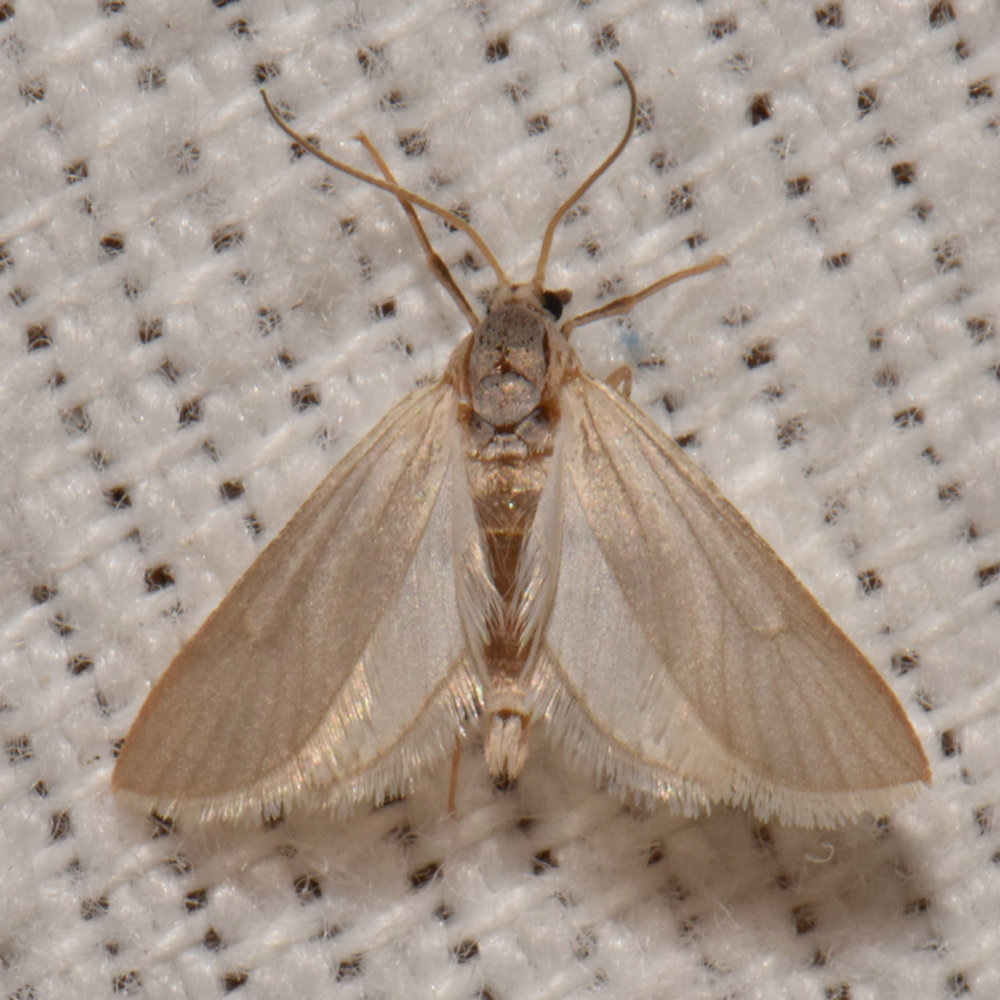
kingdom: Animalia
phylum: Arthropoda
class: Insecta
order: Lepidoptera
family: Crambidae
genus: Acentria
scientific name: Acentria ephemerella
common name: European water moth
